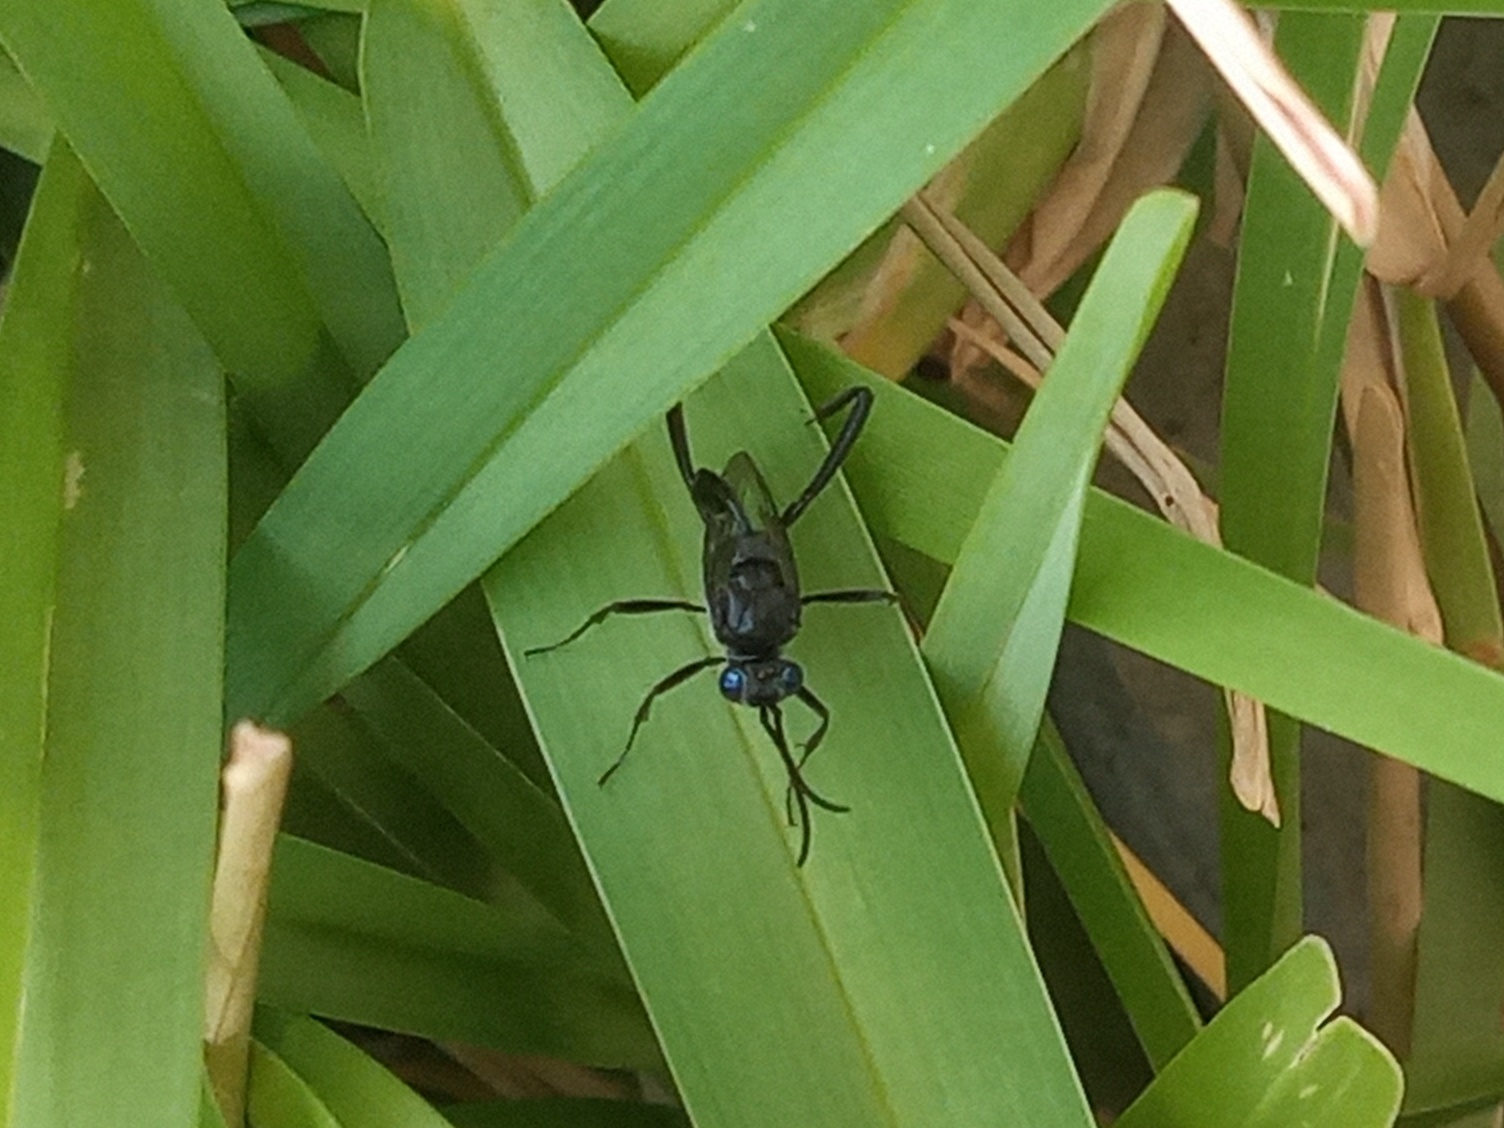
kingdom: Animalia
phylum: Arthropoda
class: Insecta
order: Hymenoptera
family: Evaniidae
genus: Evania
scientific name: Evania appendigaster
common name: Ensign wasp
